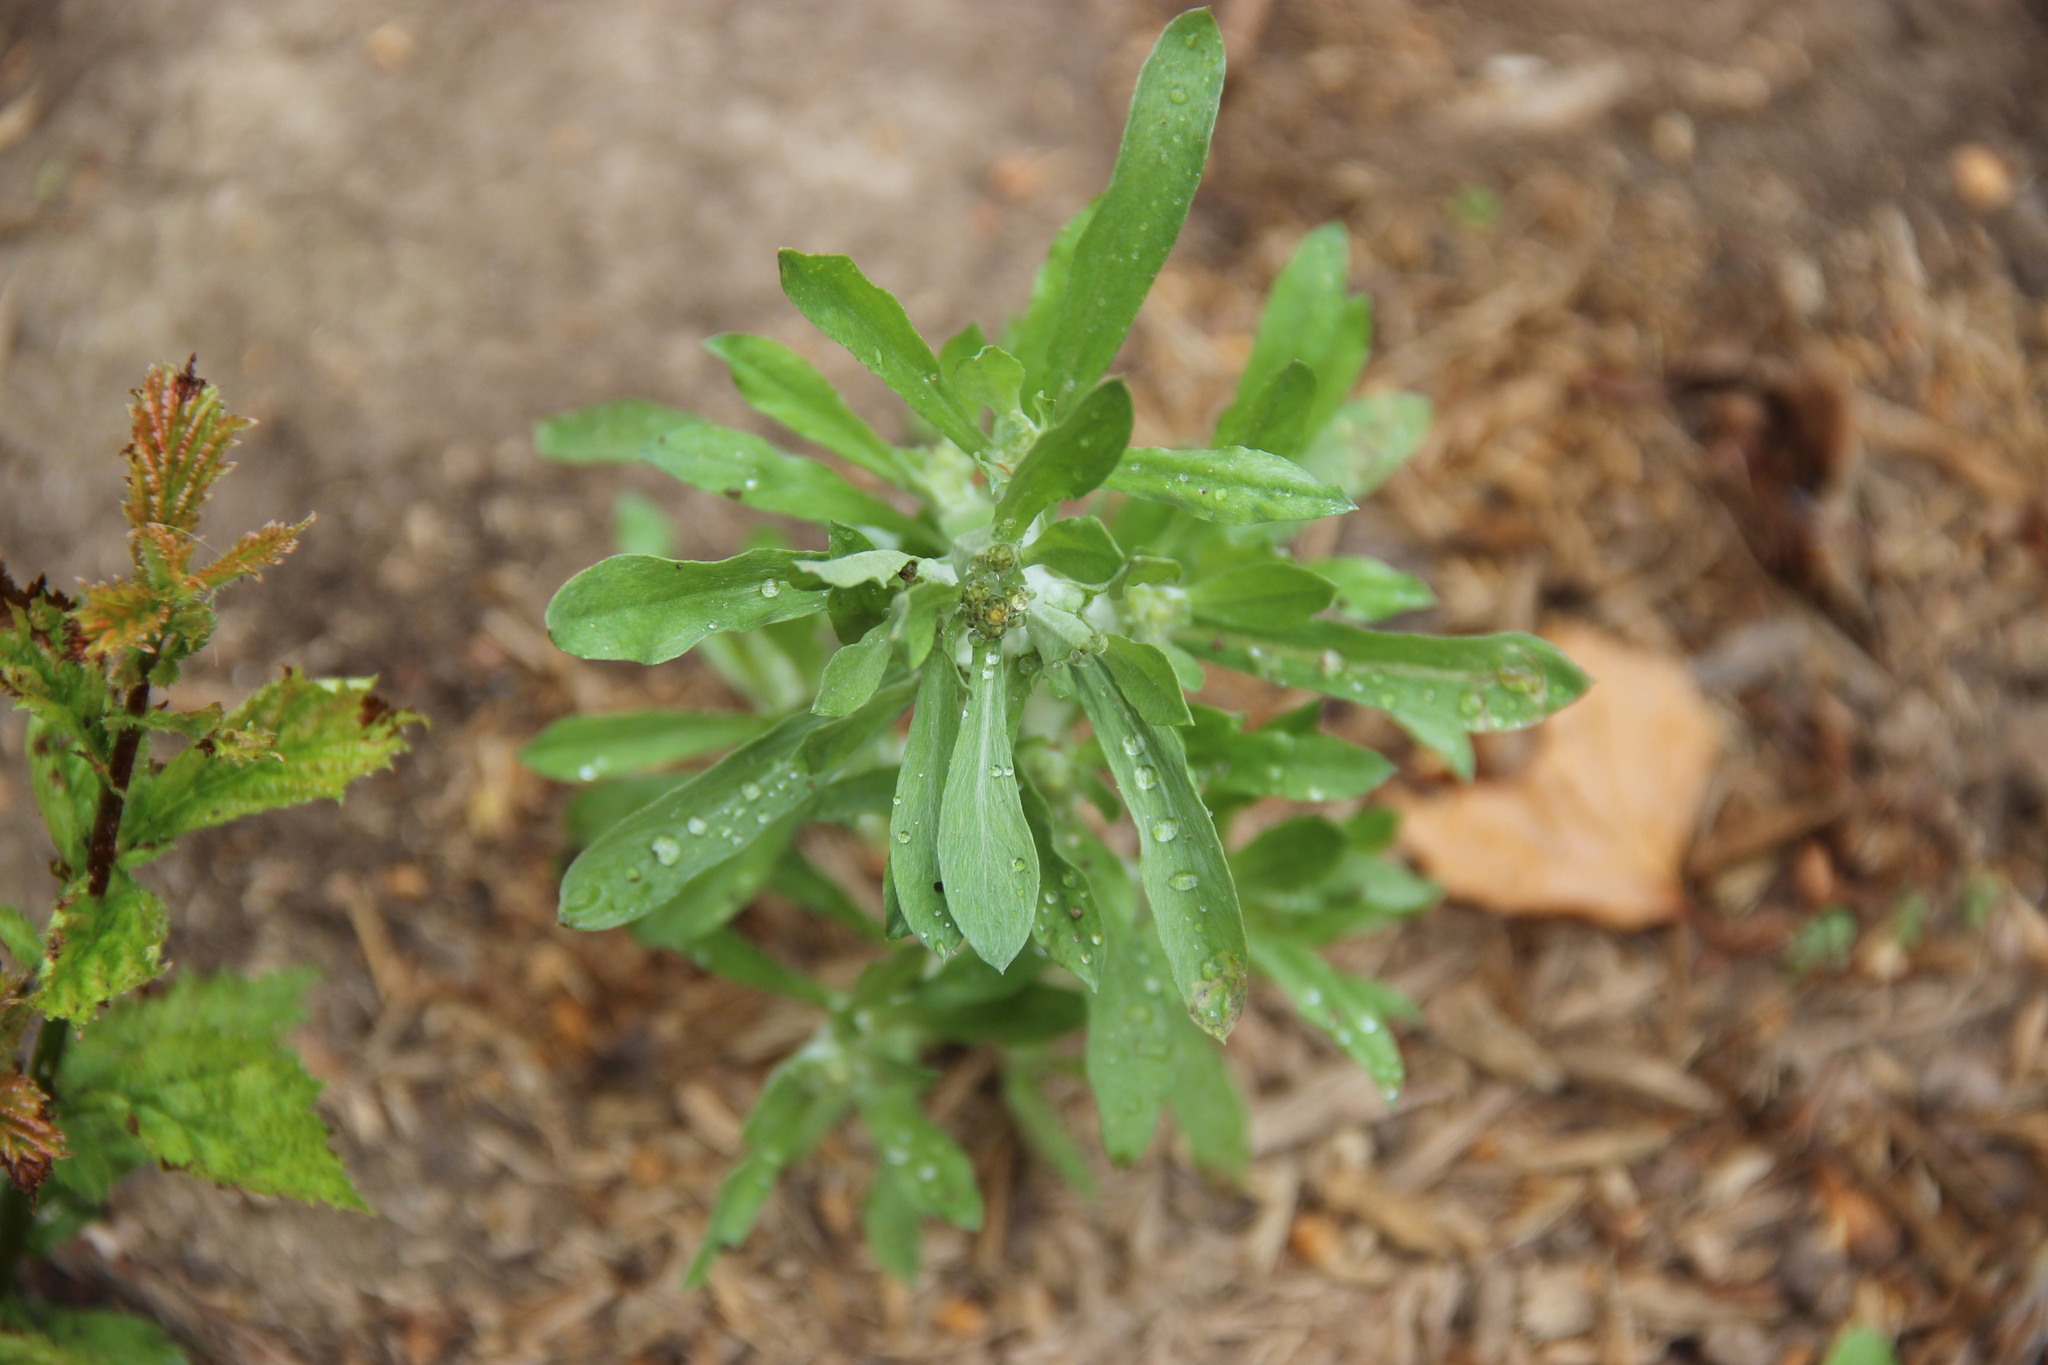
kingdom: Plantae
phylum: Tracheophyta
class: Magnoliopsida
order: Asterales
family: Asteraceae
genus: Gnaphalium
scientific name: Gnaphalium uliginosum
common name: Marsh cudweed
